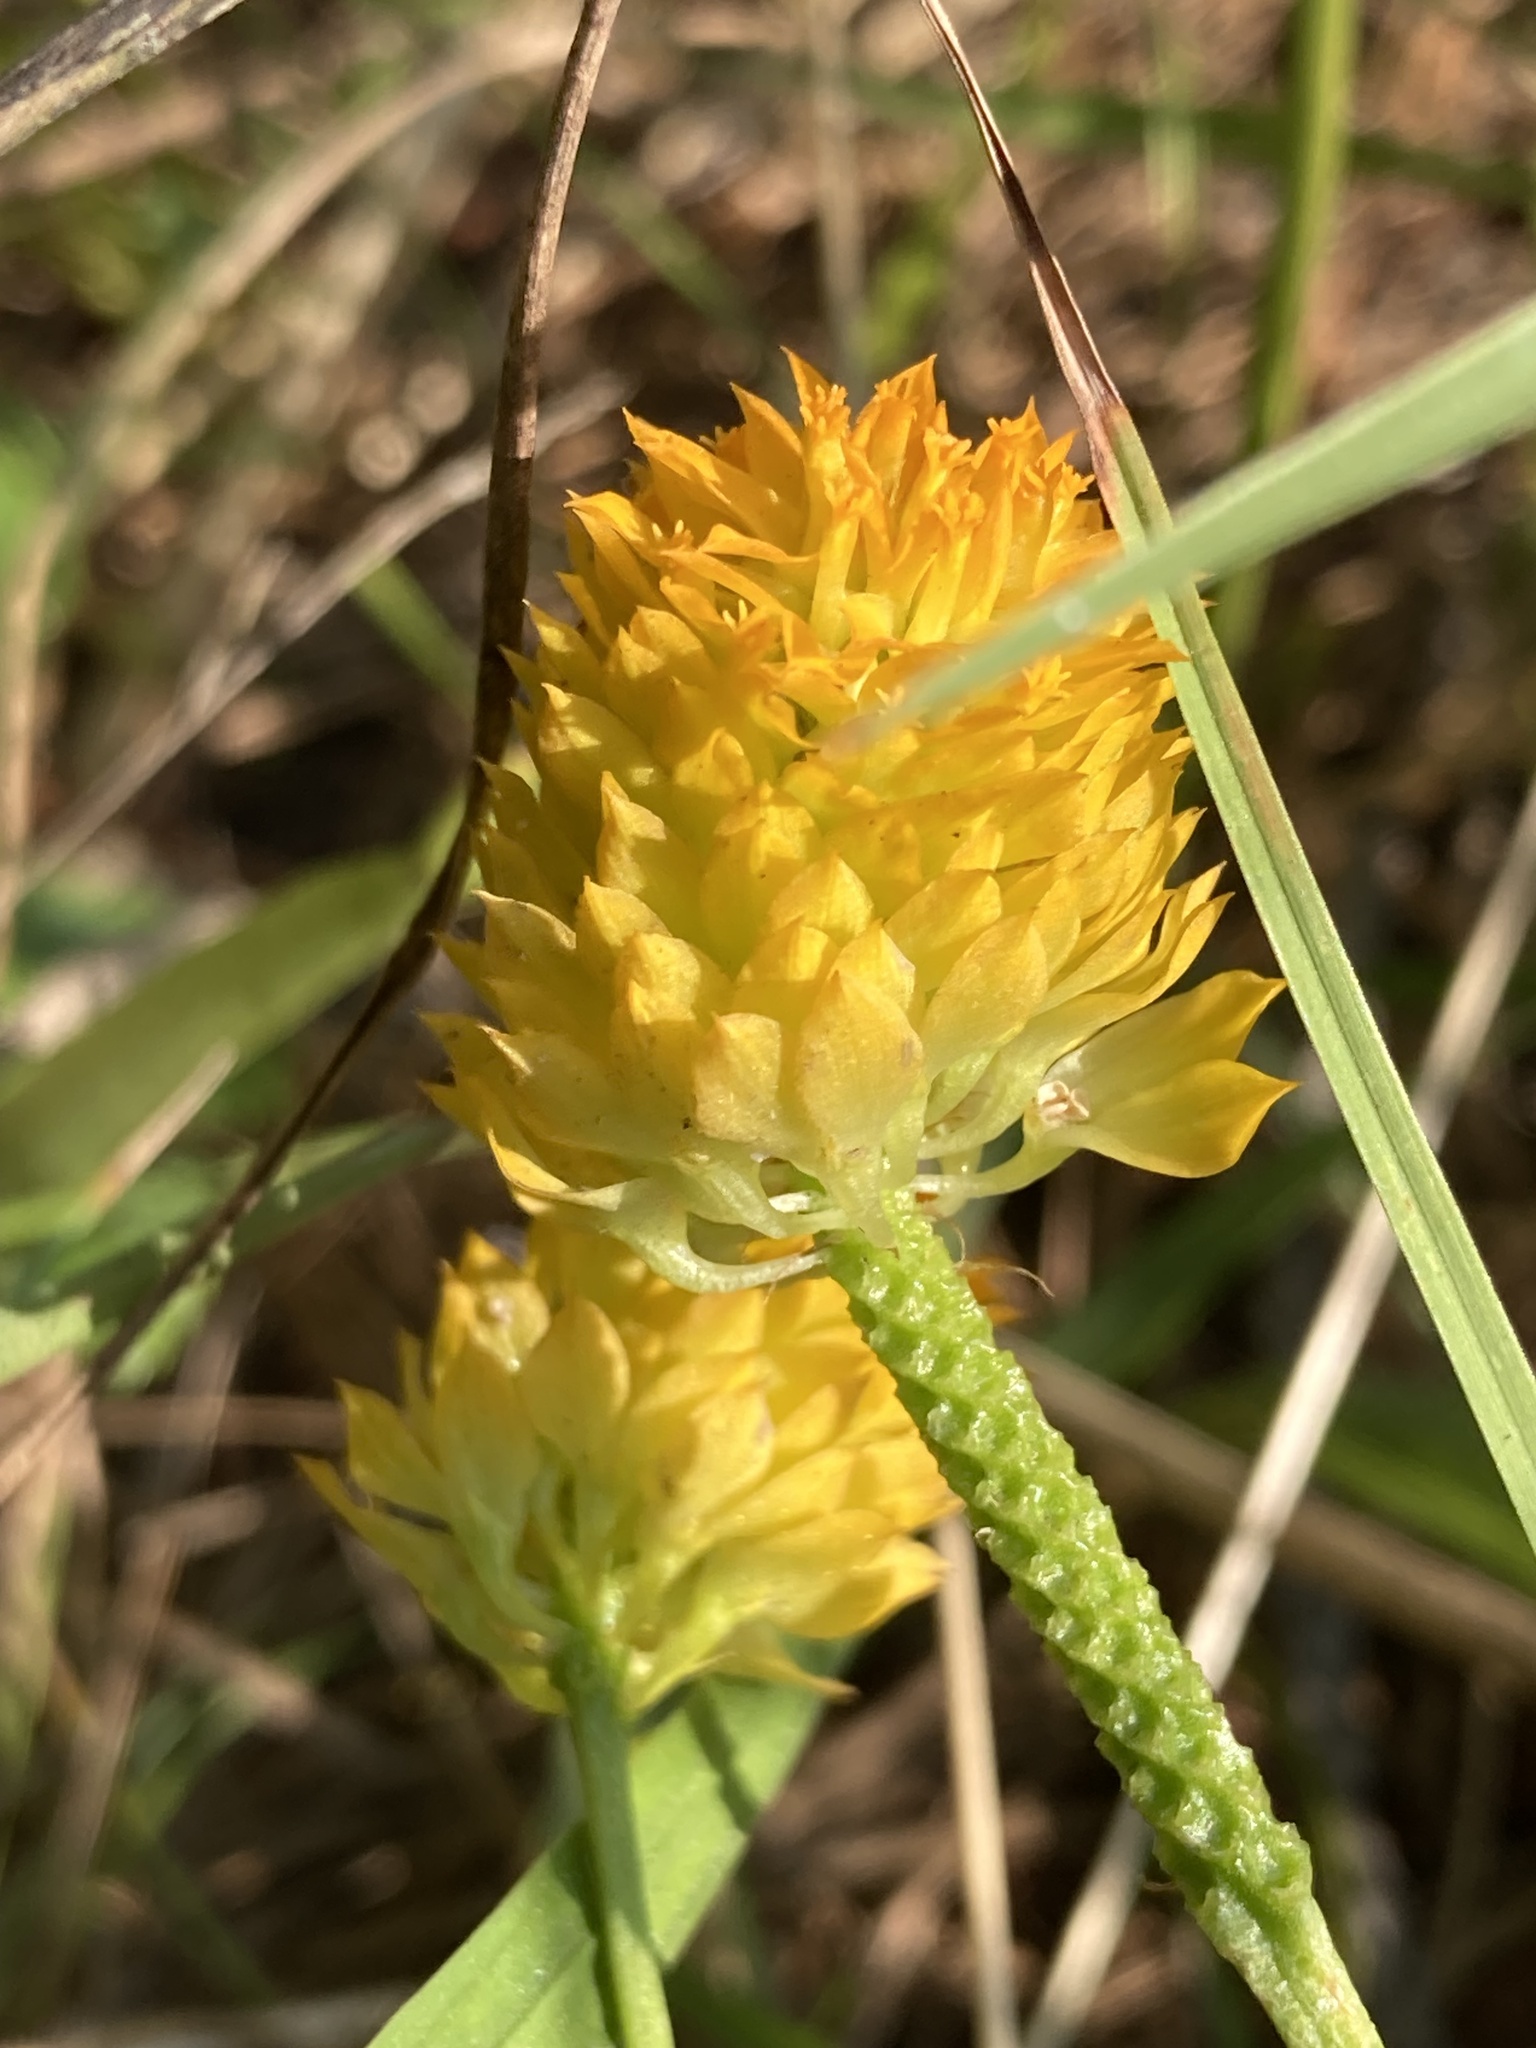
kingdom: Plantae
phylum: Tracheophyta
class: Magnoliopsida
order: Fabales
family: Polygalaceae
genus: Polygala
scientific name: Polygala lutea
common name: Orange milkwort
